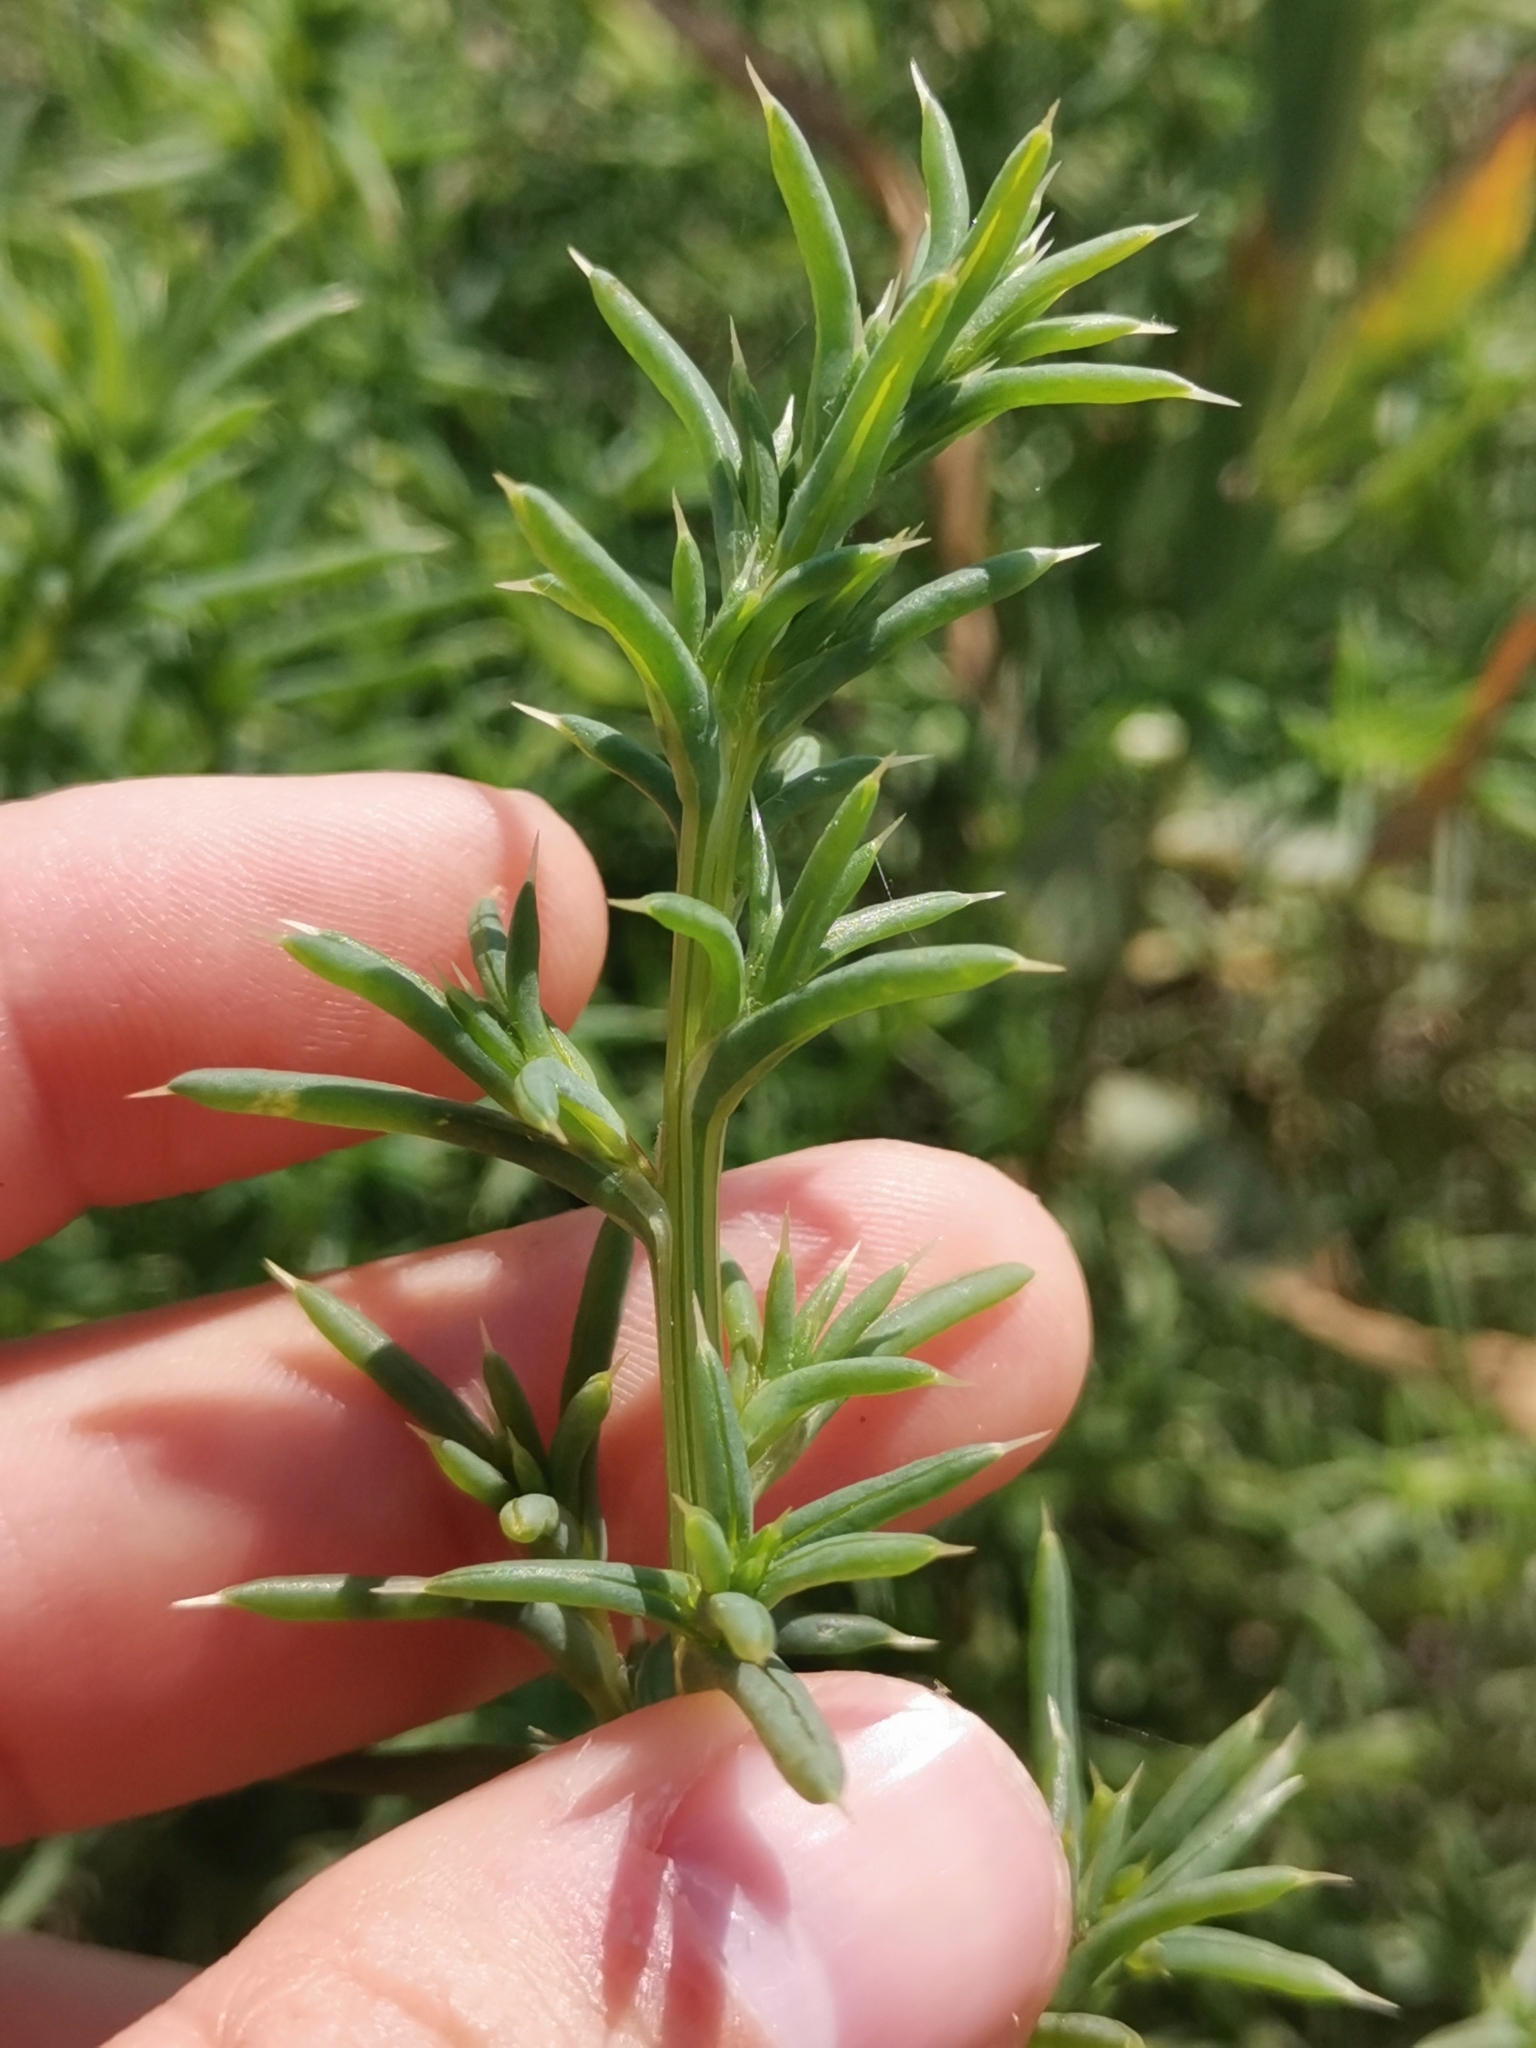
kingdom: Plantae
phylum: Tracheophyta
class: Magnoliopsida
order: Caryophyllales
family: Amaranthaceae
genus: Salsola
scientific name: Salsola kali
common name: Saltwort
